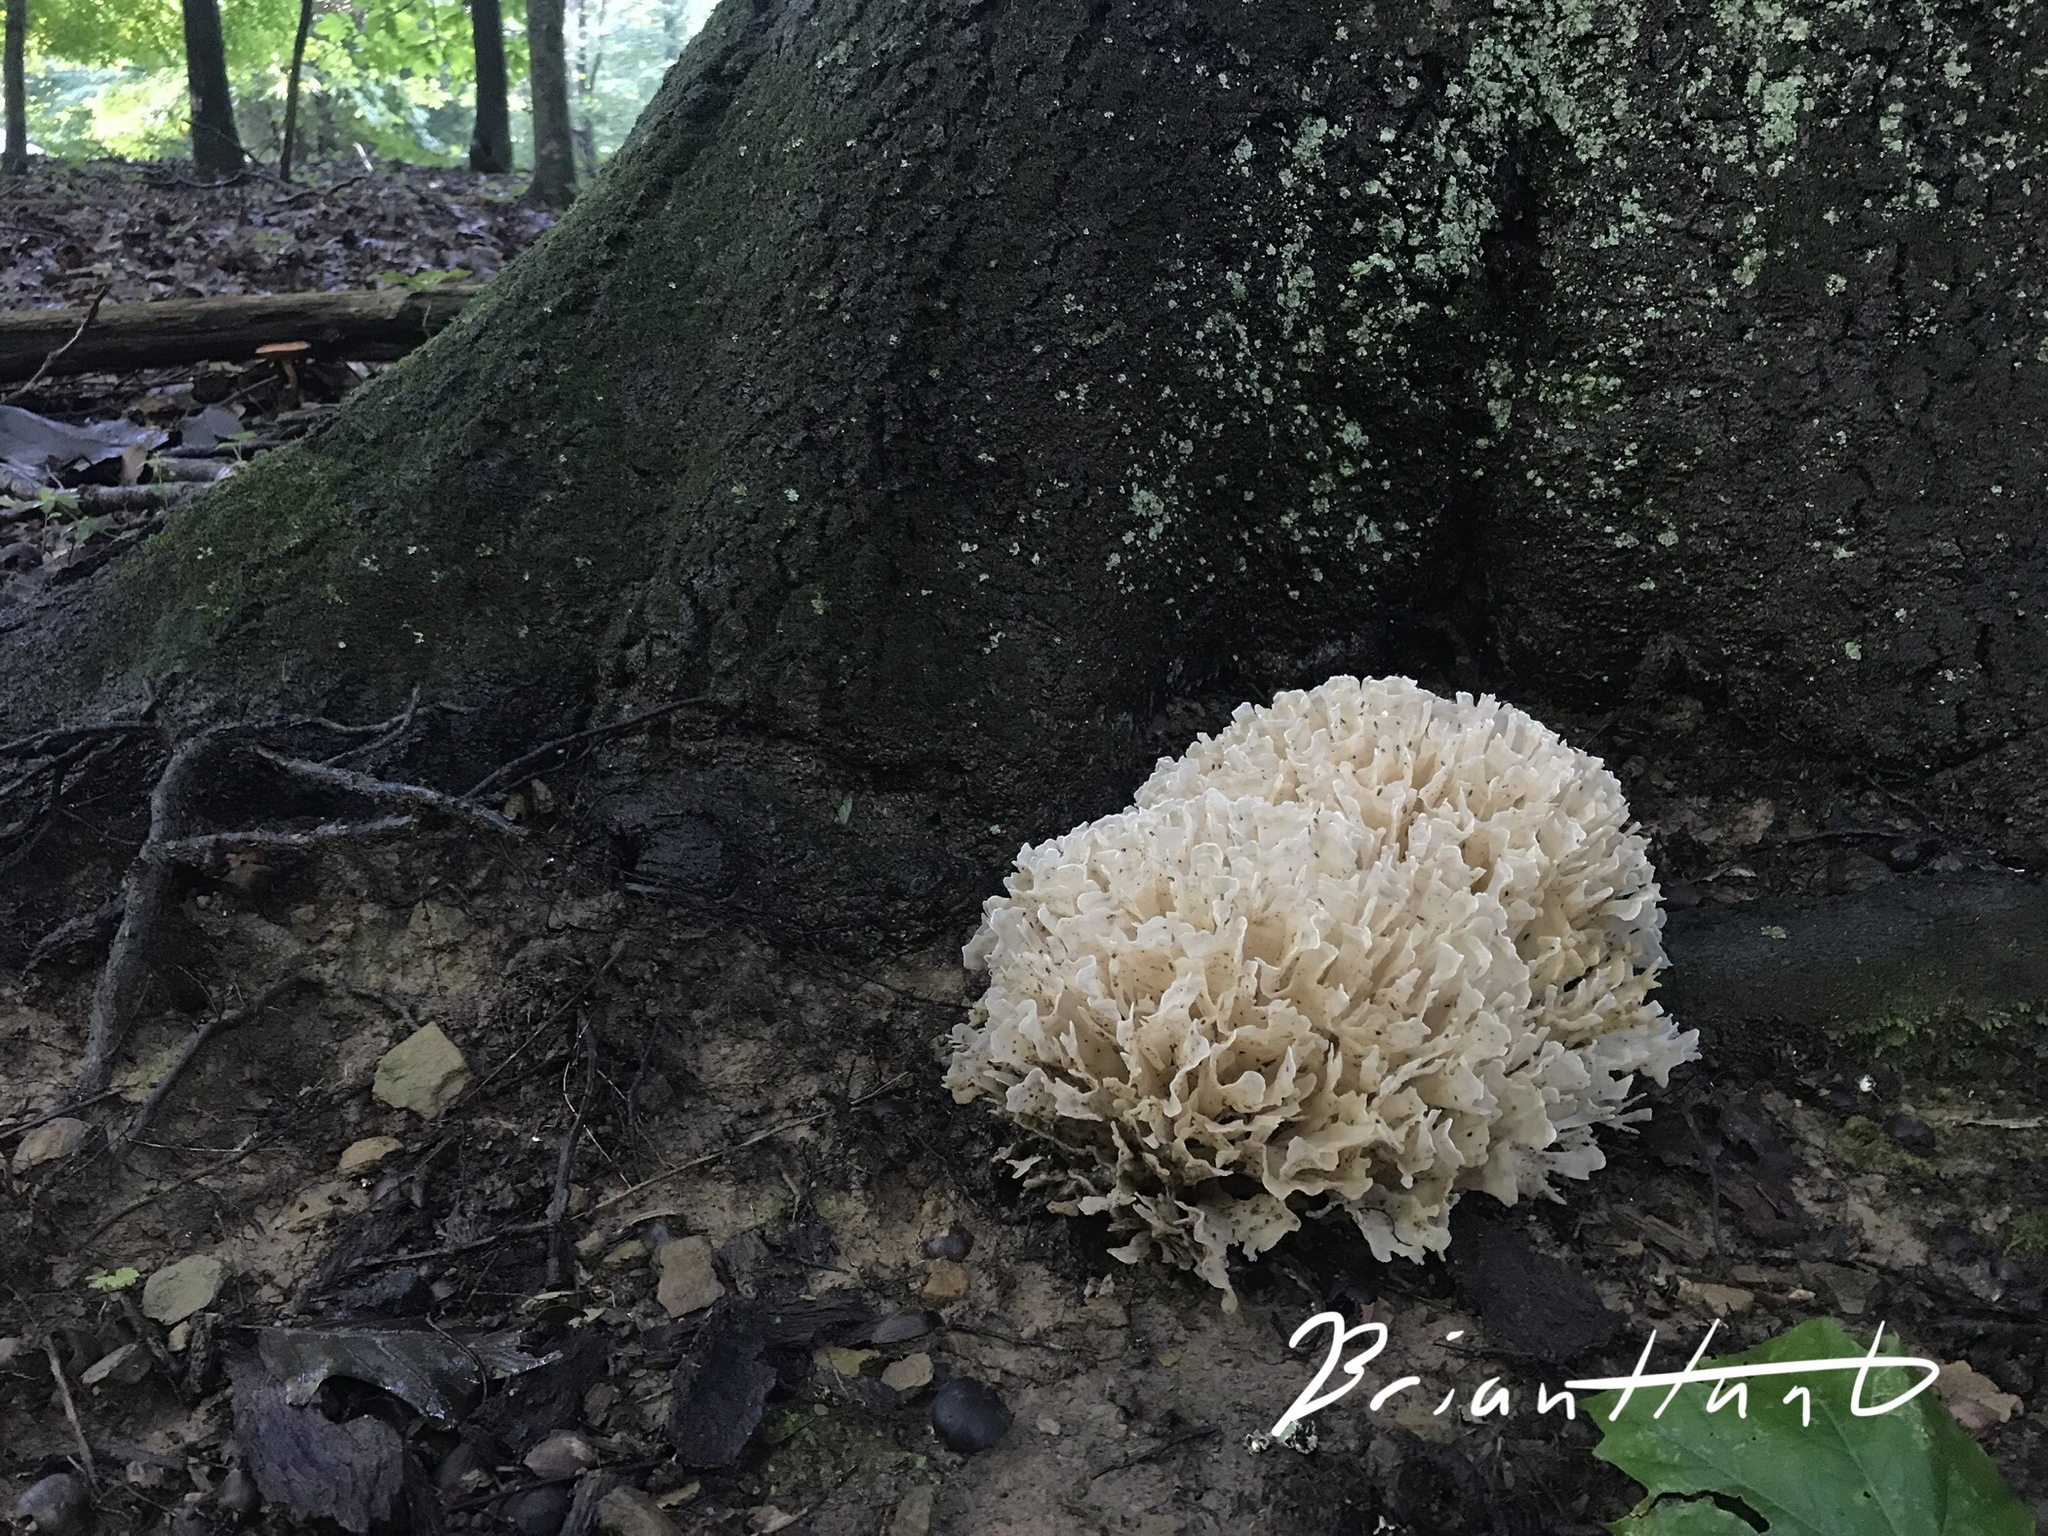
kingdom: Fungi
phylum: Basidiomycota
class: Agaricomycetes
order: Polyporales
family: Sparassidaceae
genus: Sparassis
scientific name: Sparassis spathulata
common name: Eastern cauliflower mushroom
